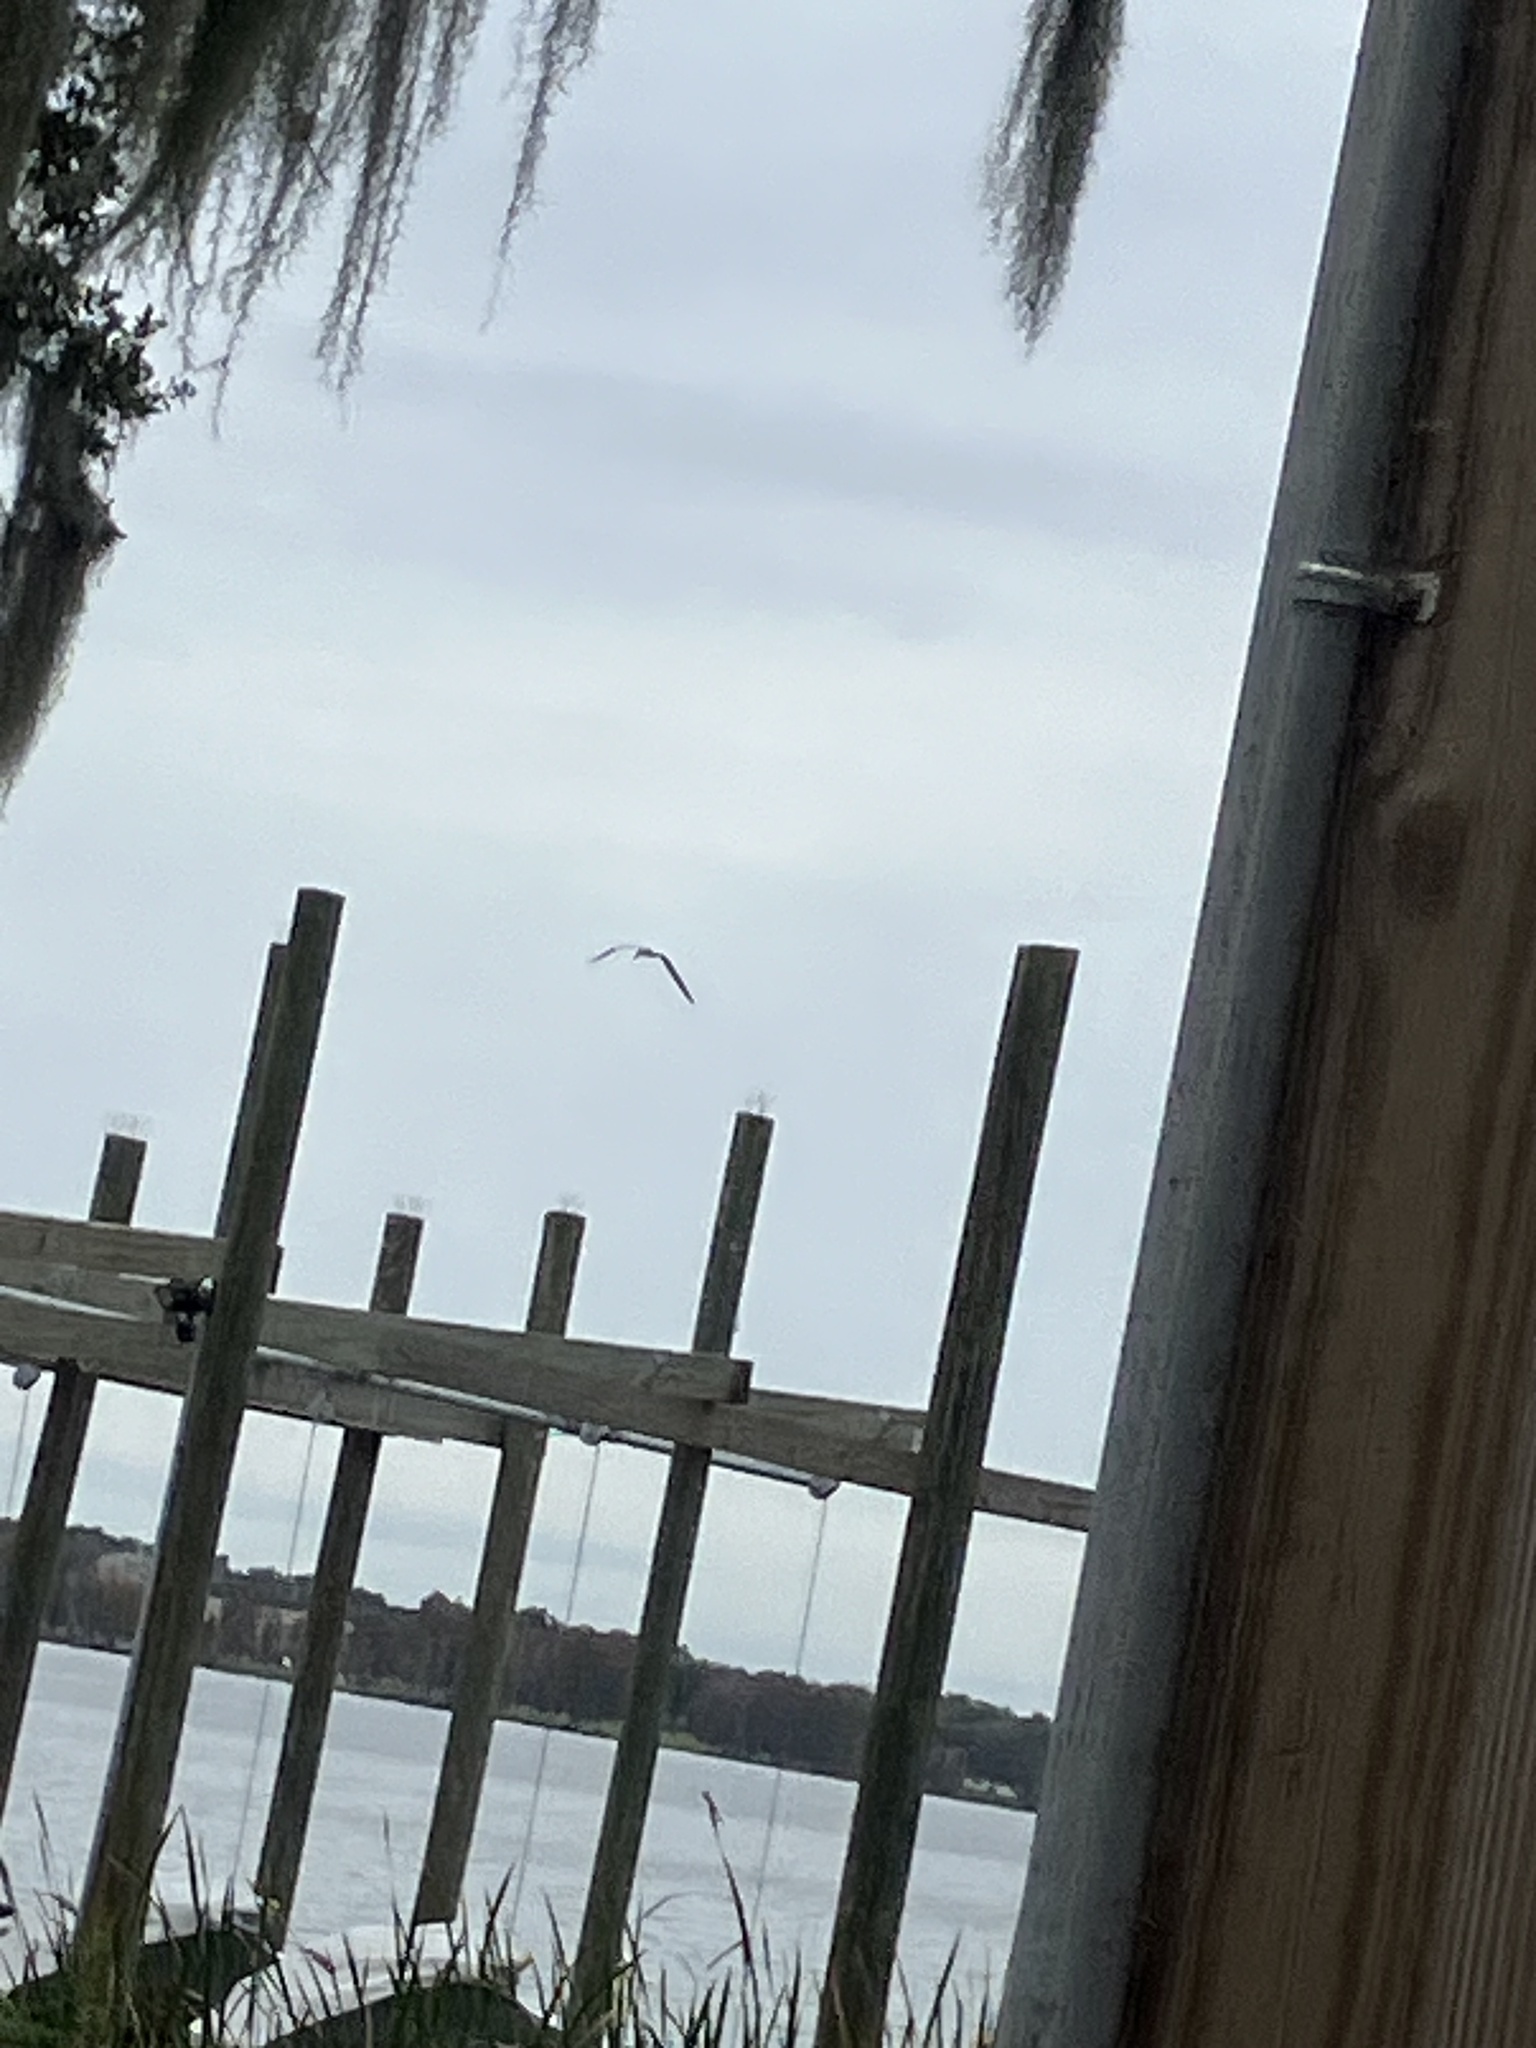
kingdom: Animalia
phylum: Chordata
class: Aves
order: Charadriiformes
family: Laridae
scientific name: Laridae
